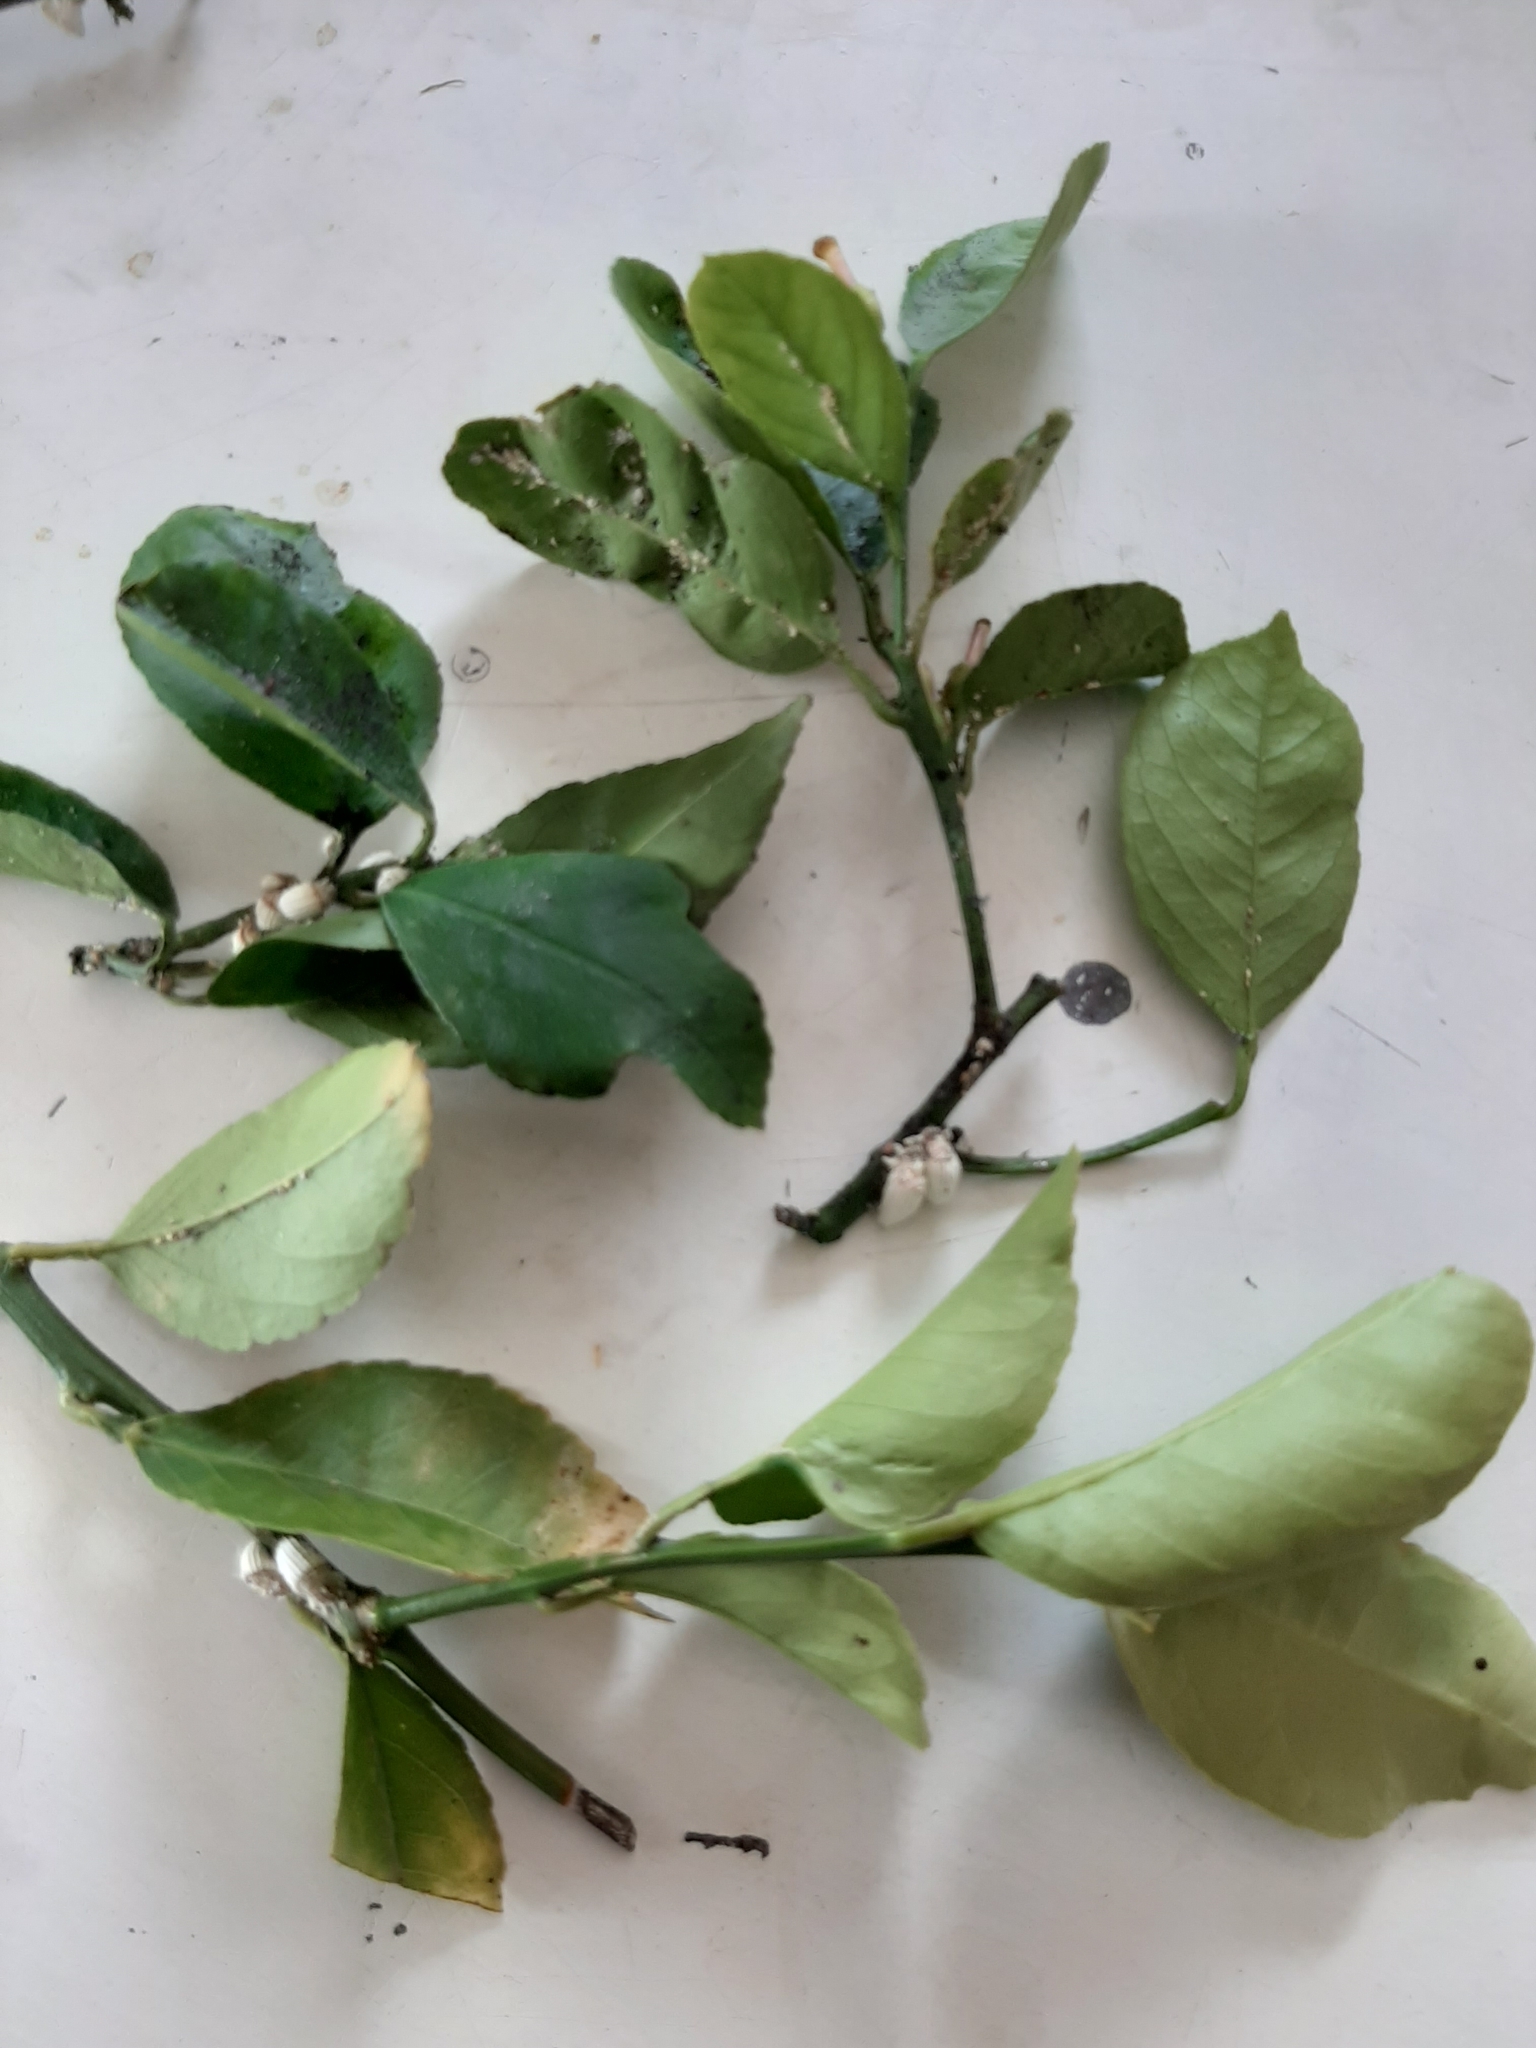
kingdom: Animalia
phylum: Arthropoda
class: Insecta
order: Hemiptera
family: Margarodidae
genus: Icerya
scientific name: Icerya purchasi
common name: Cottony cushion scale
